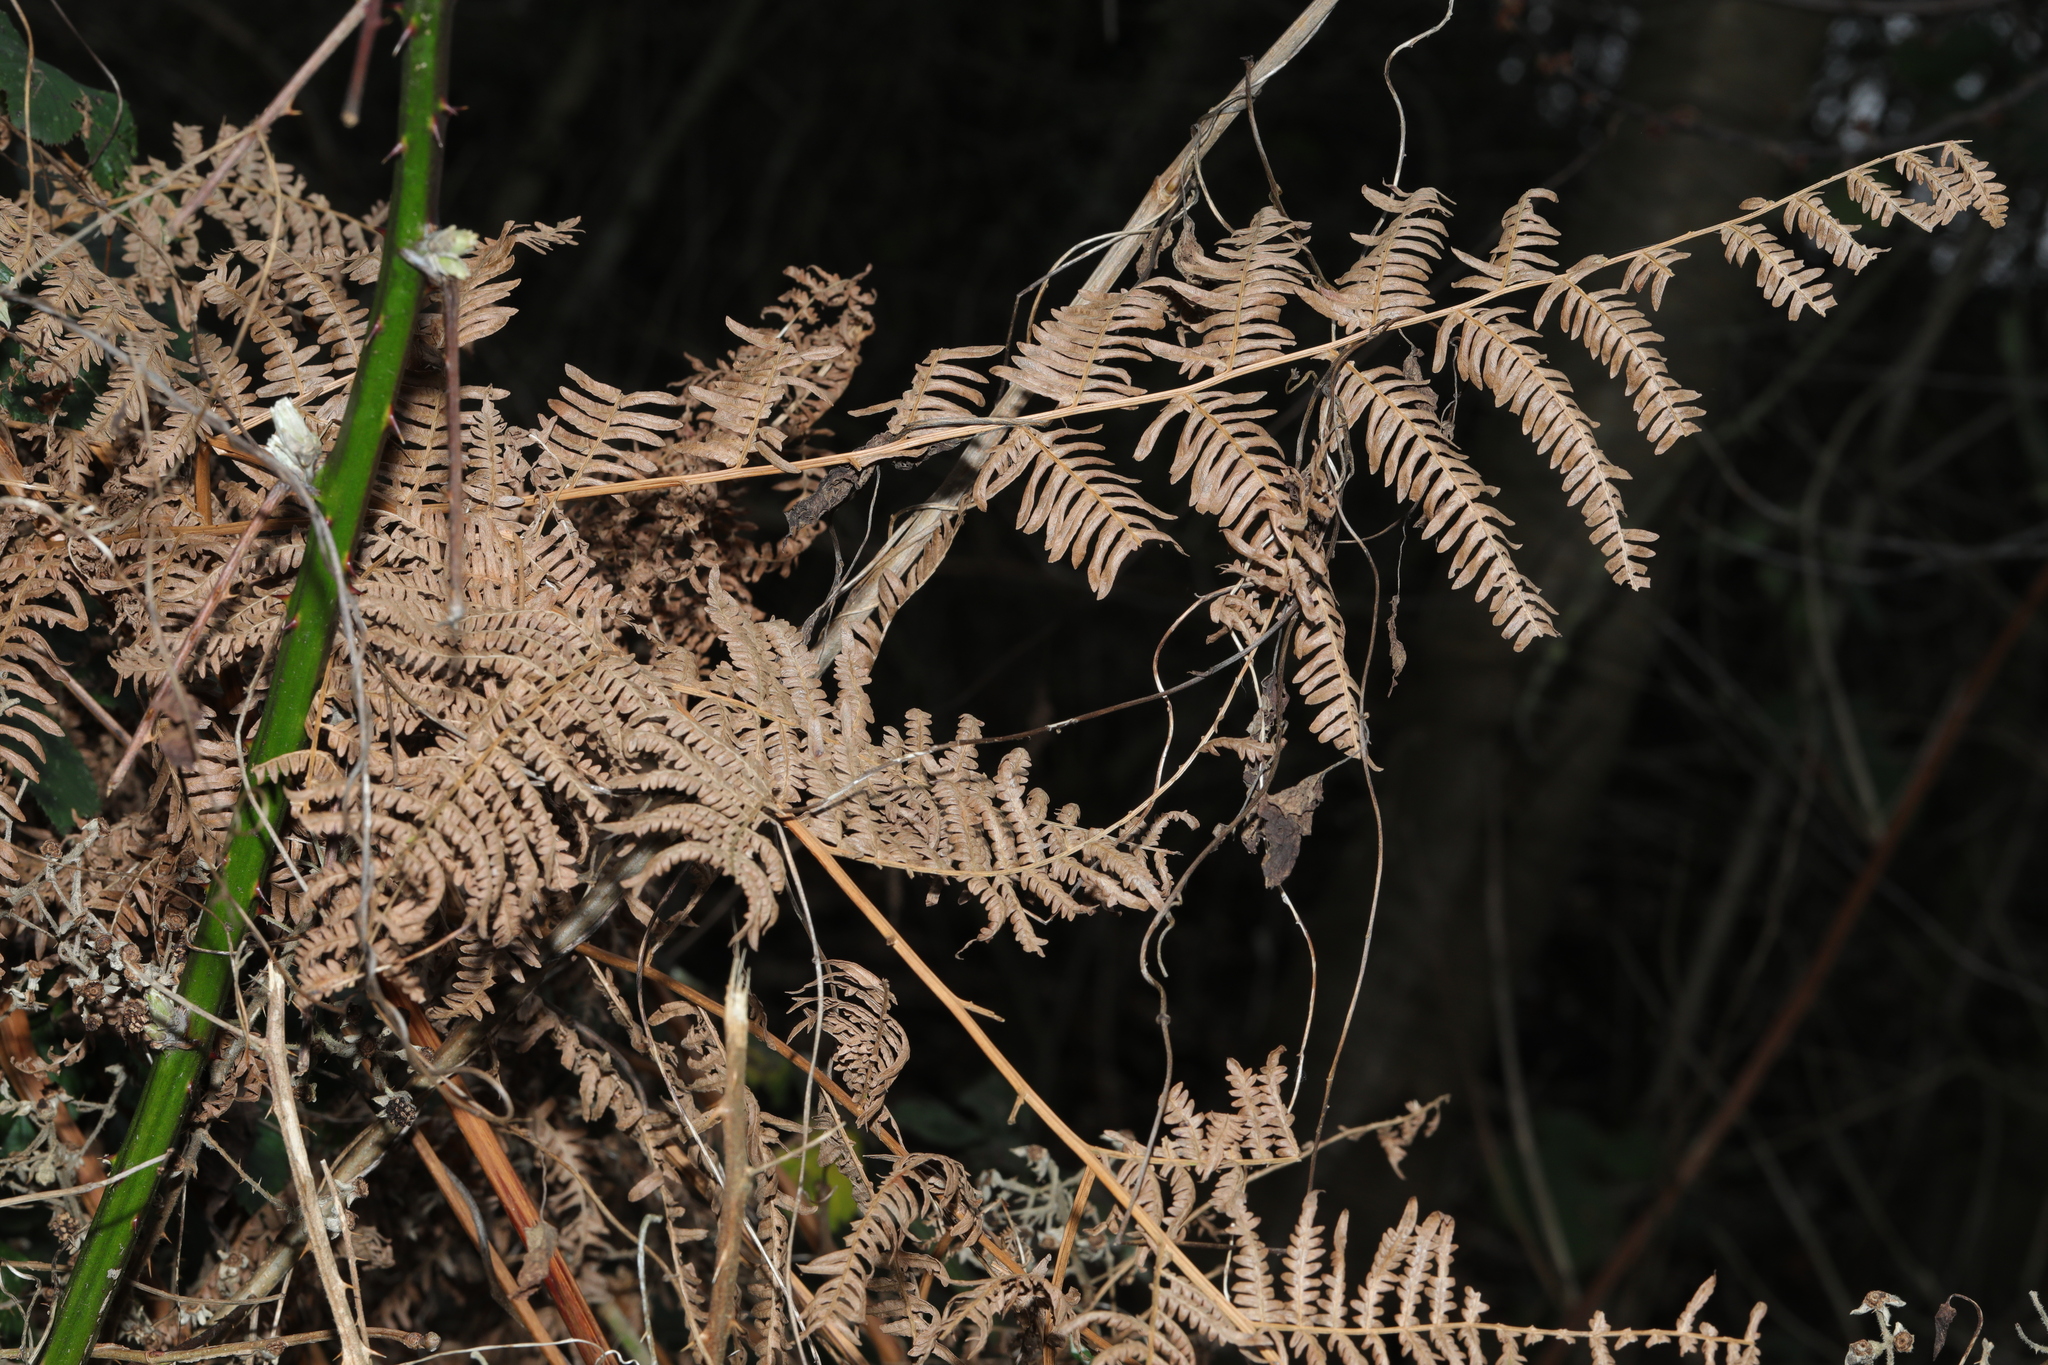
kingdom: Plantae
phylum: Tracheophyta
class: Polypodiopsida
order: Polypodiales
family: Dennstaedtiaceae
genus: Pteridium
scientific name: Pteridium aquilinum
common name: Bracken
